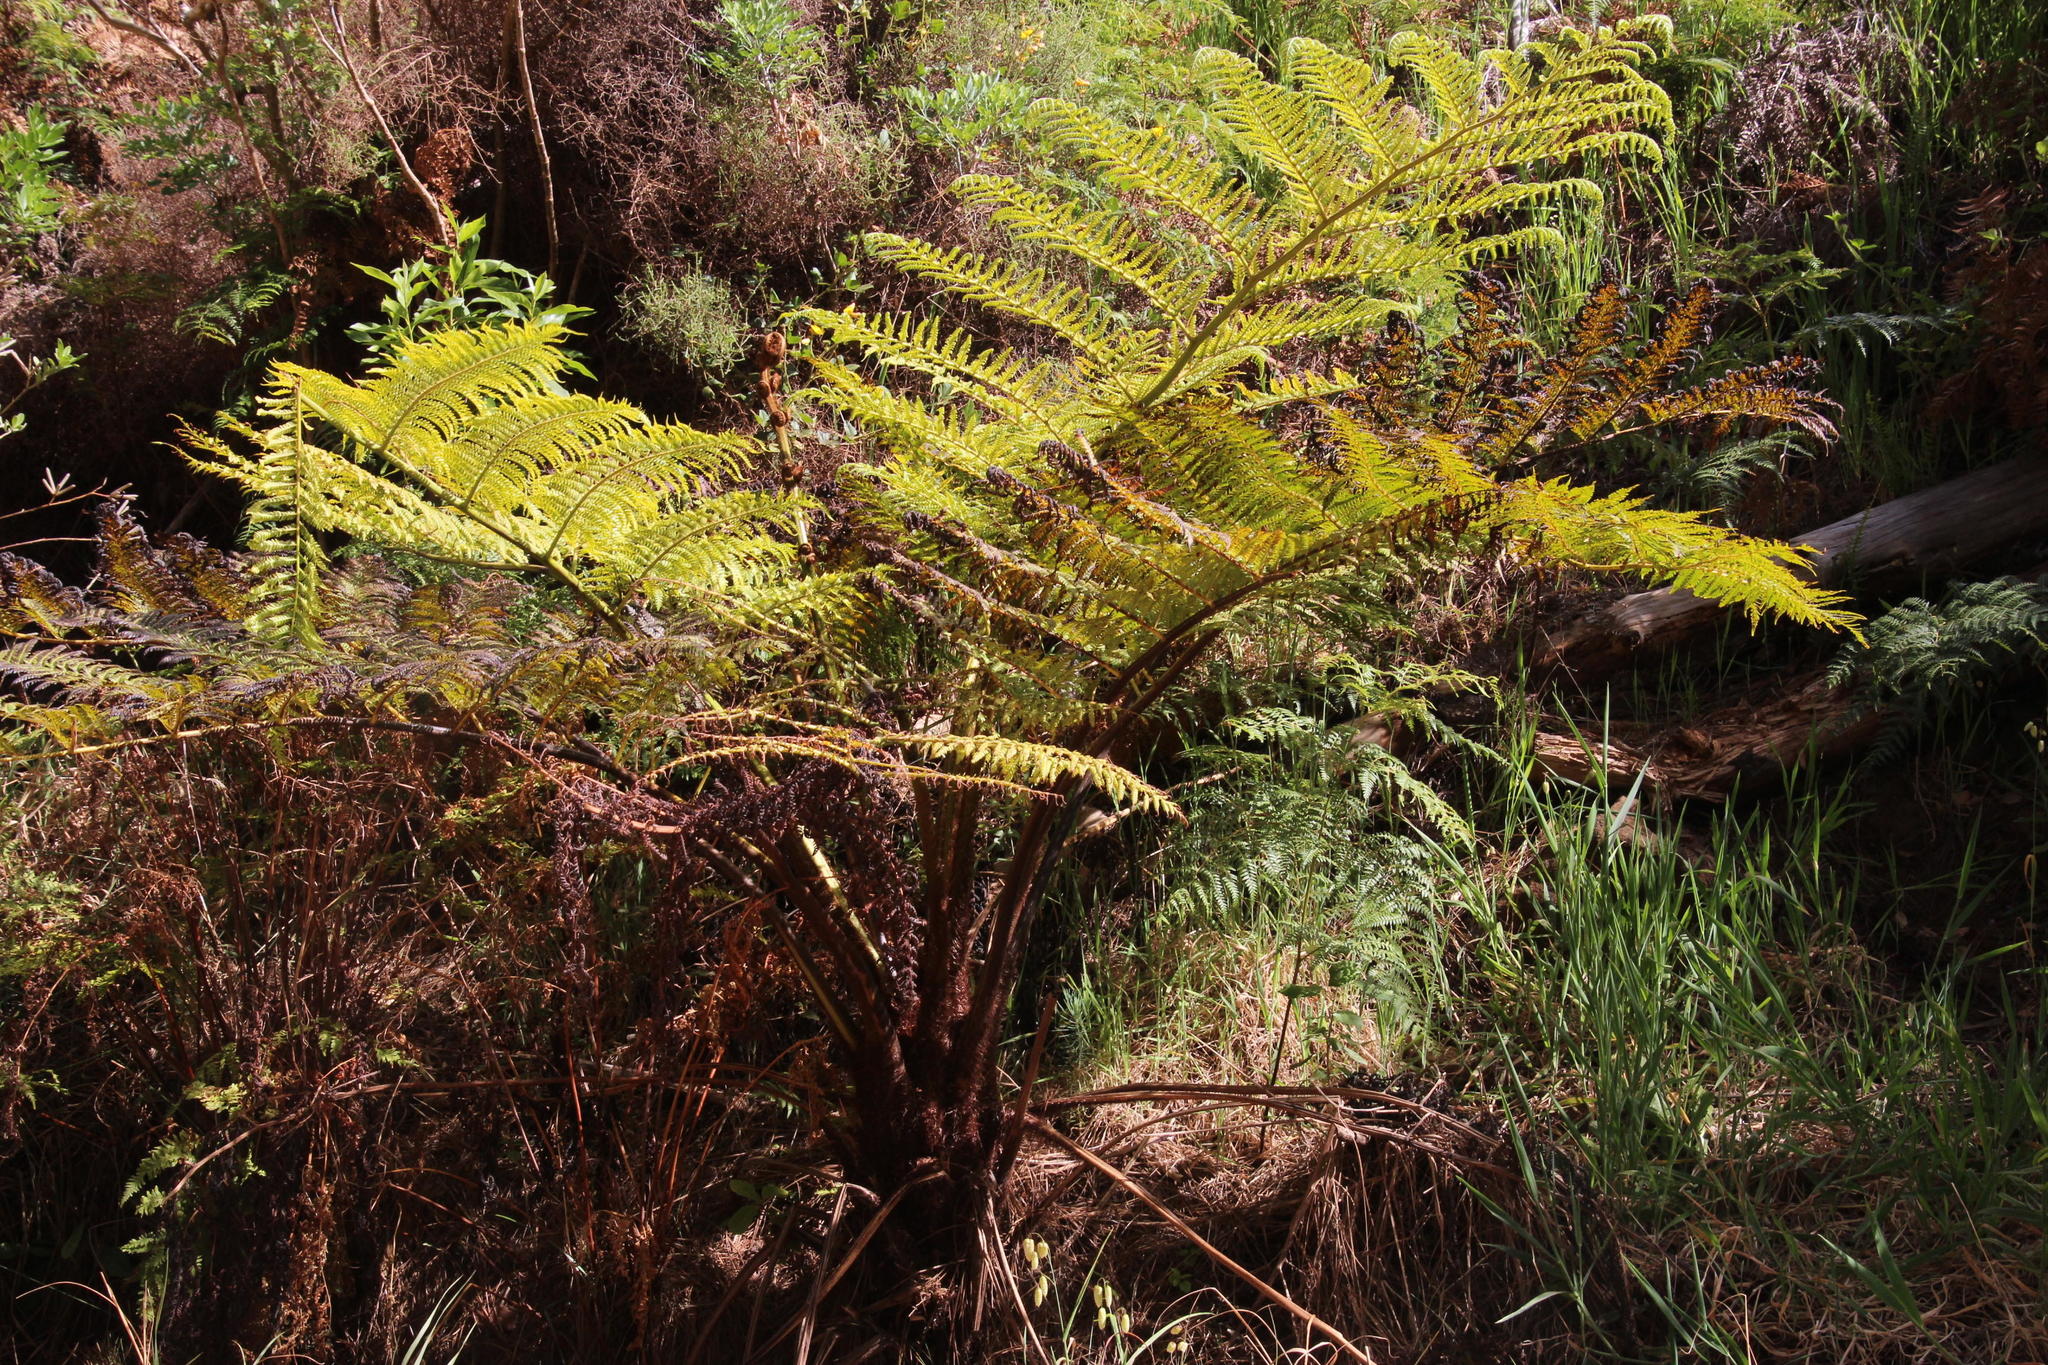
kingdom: Plantae
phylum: Tracheophyta
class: Polypodiopsida
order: Cyatheales
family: Cyatheaceae
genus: Sphaeropteris
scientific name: Sphaeropteris cooperi
